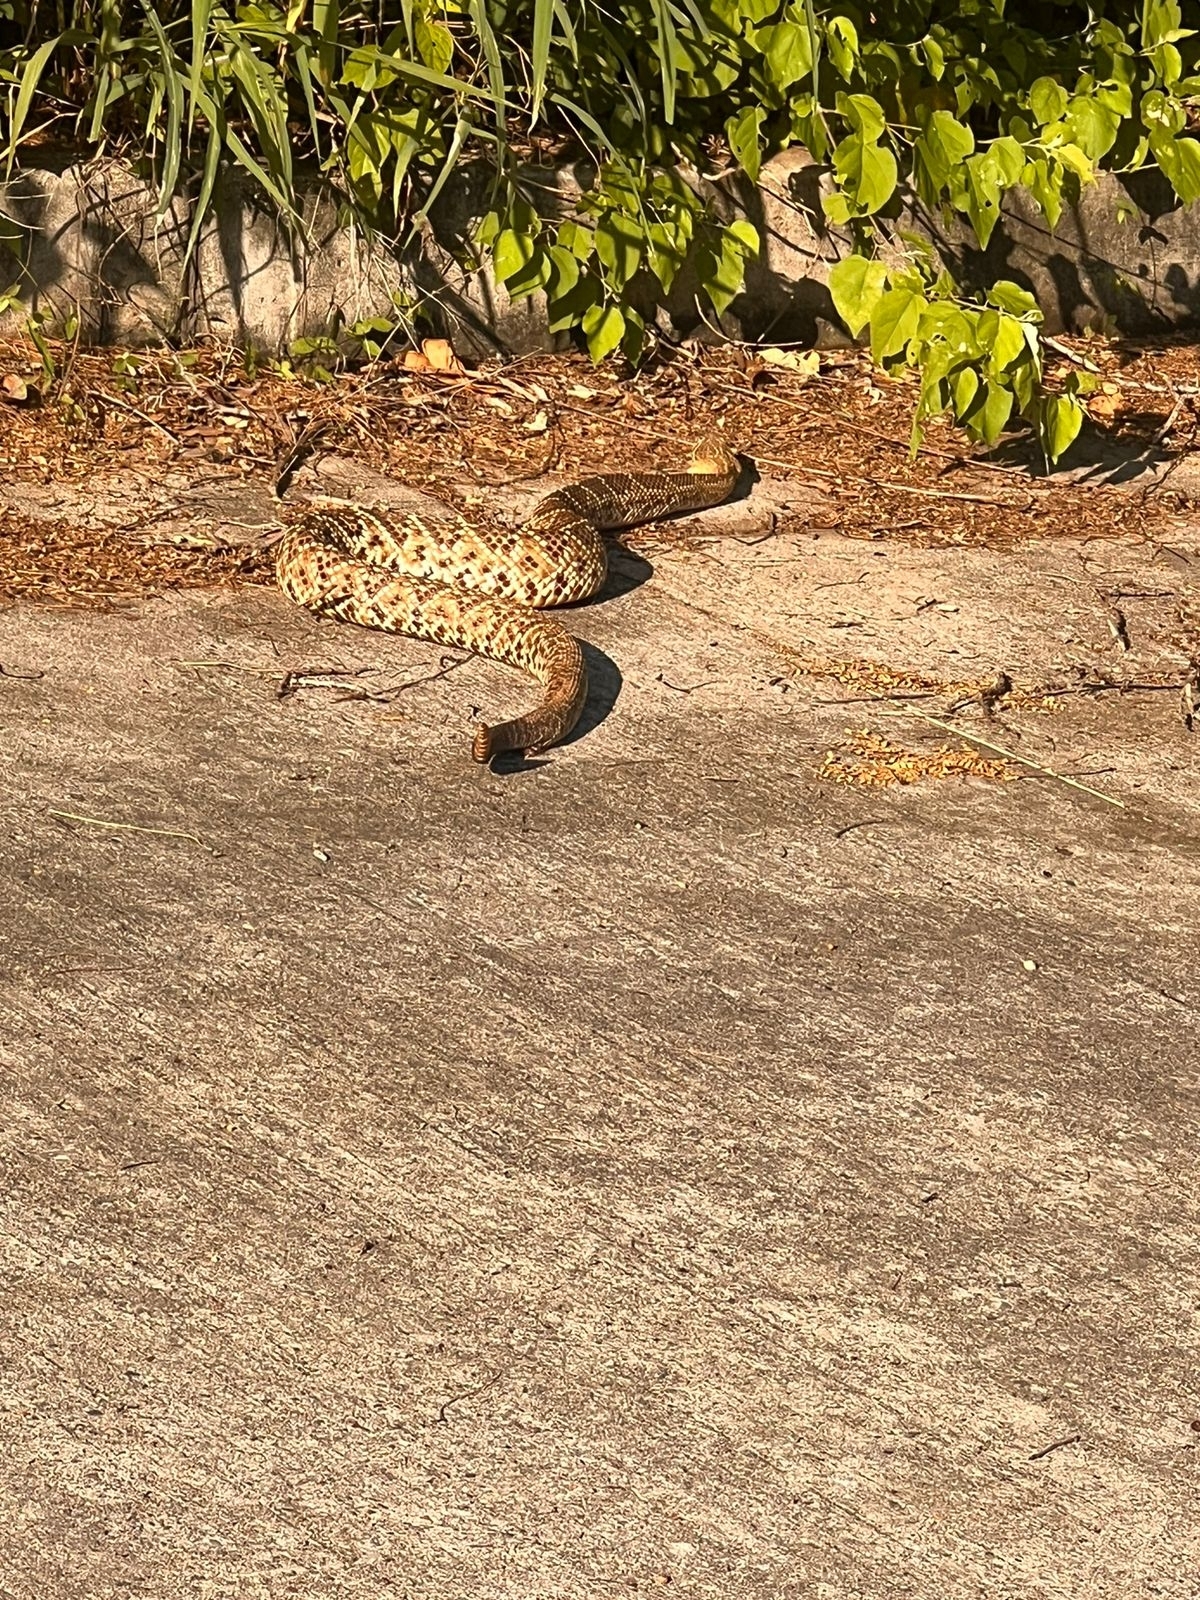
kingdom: Animalia
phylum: Chordata
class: Squamata
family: Viperidae
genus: Crotalus
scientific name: Crotalus basiliscus
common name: Basilisk rattlesnake
